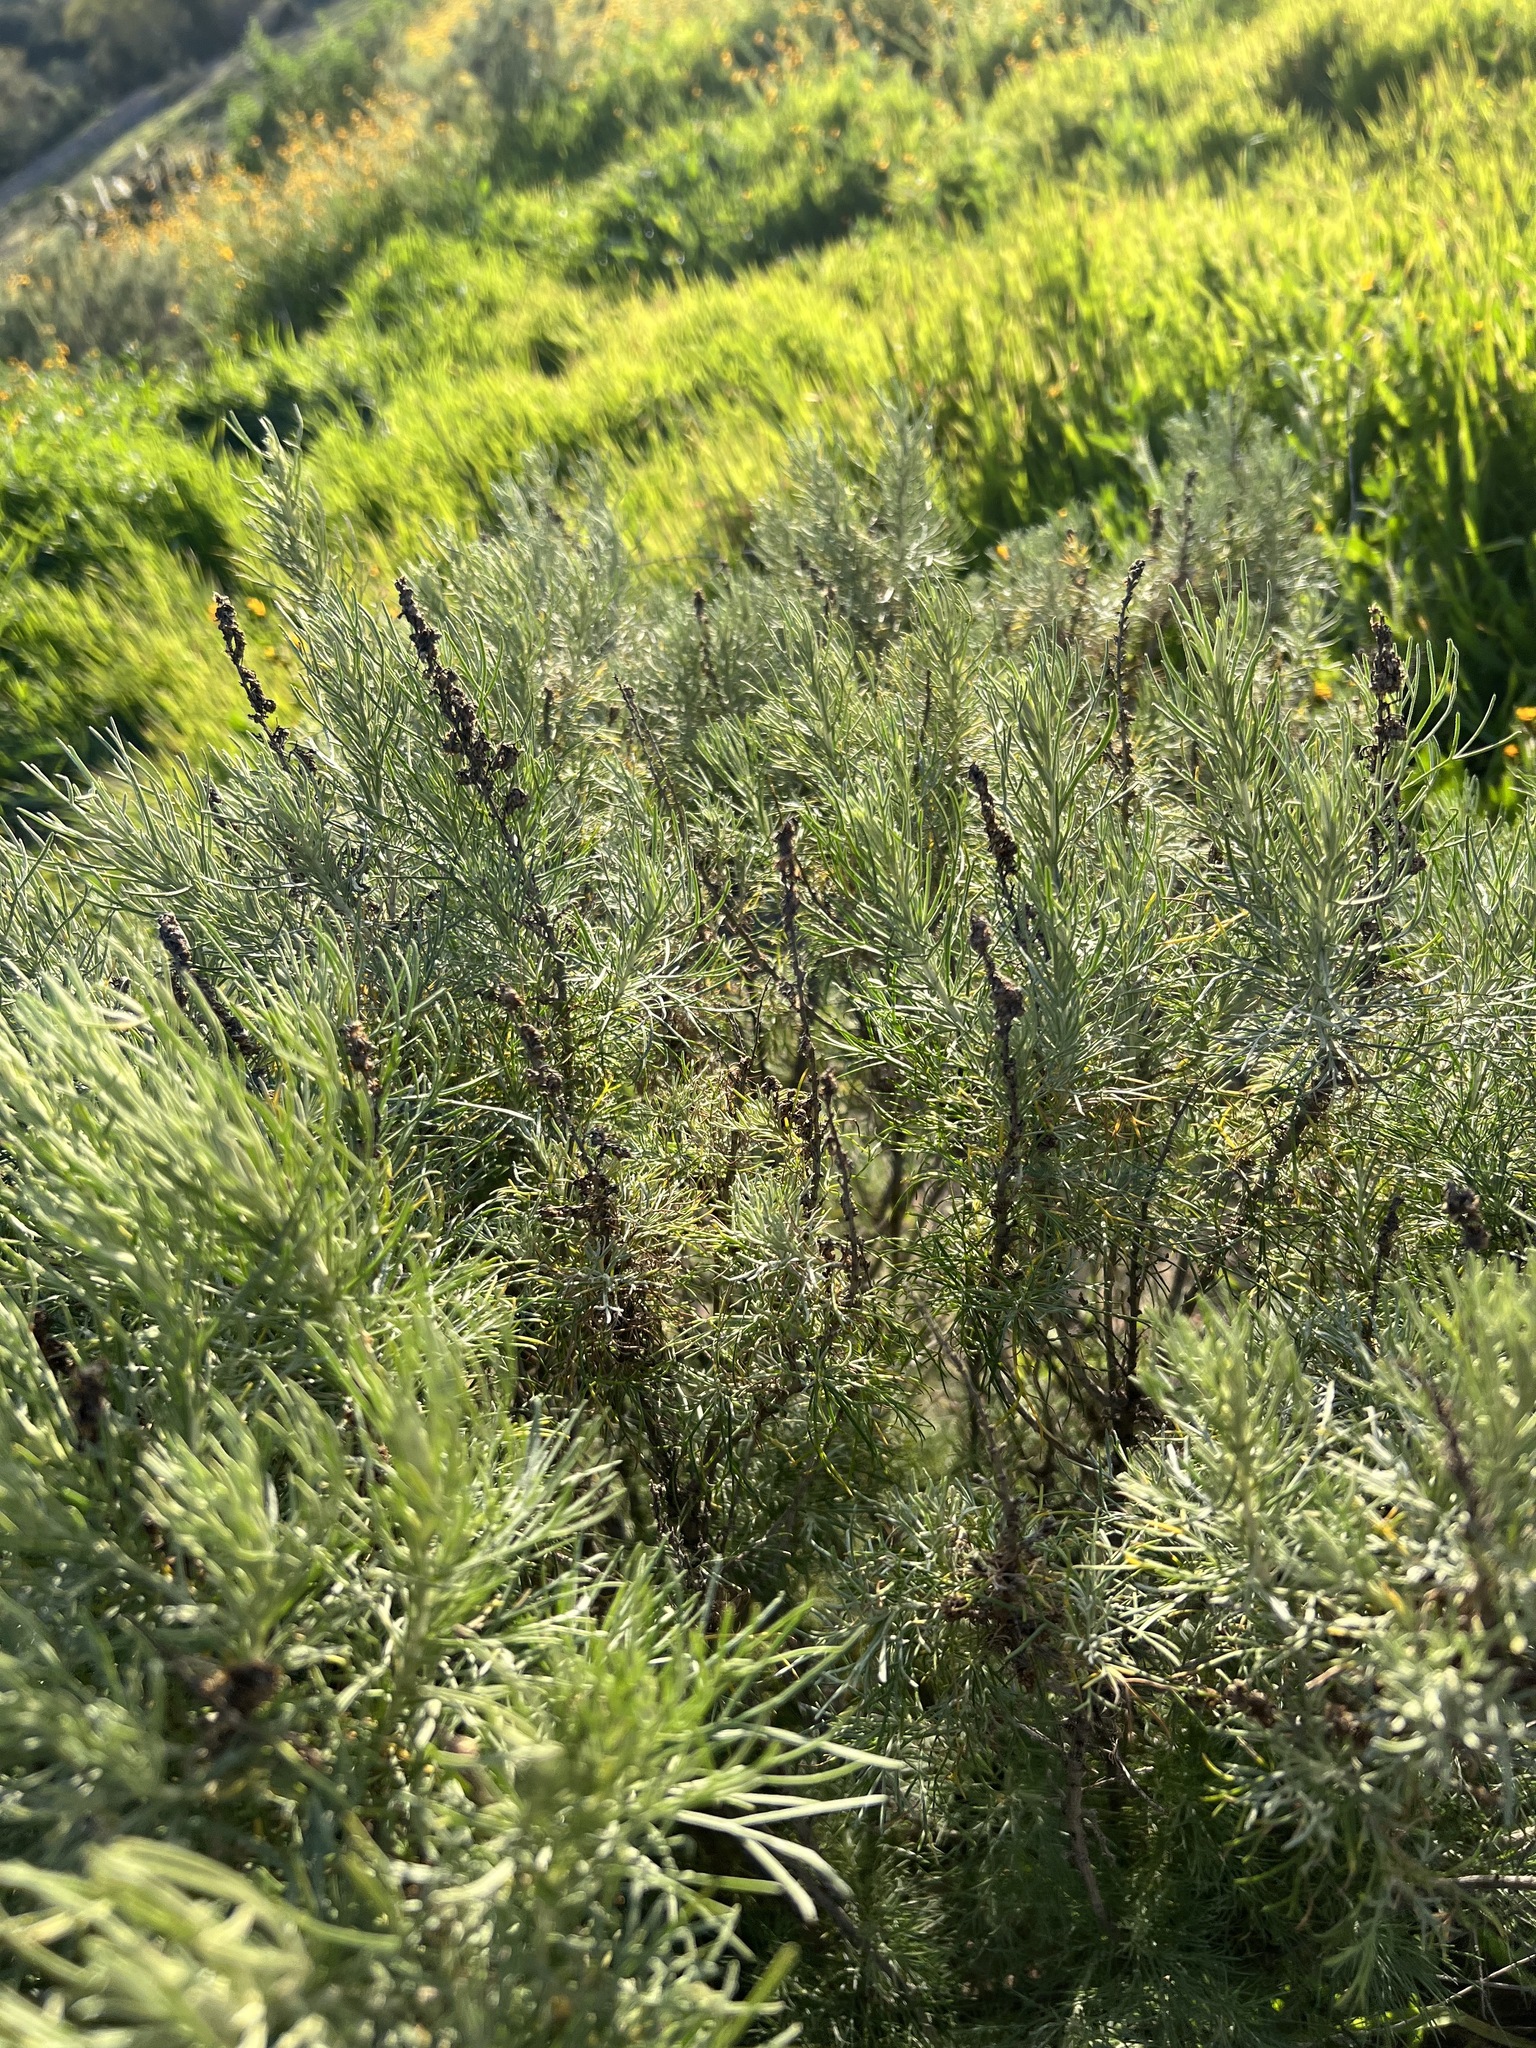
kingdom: Plantae
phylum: Tracheophyta
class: Magnoliopsida
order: Asterales
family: Asteraceae
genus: Artemisia
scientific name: Artemisia californica
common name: California sagebrush
